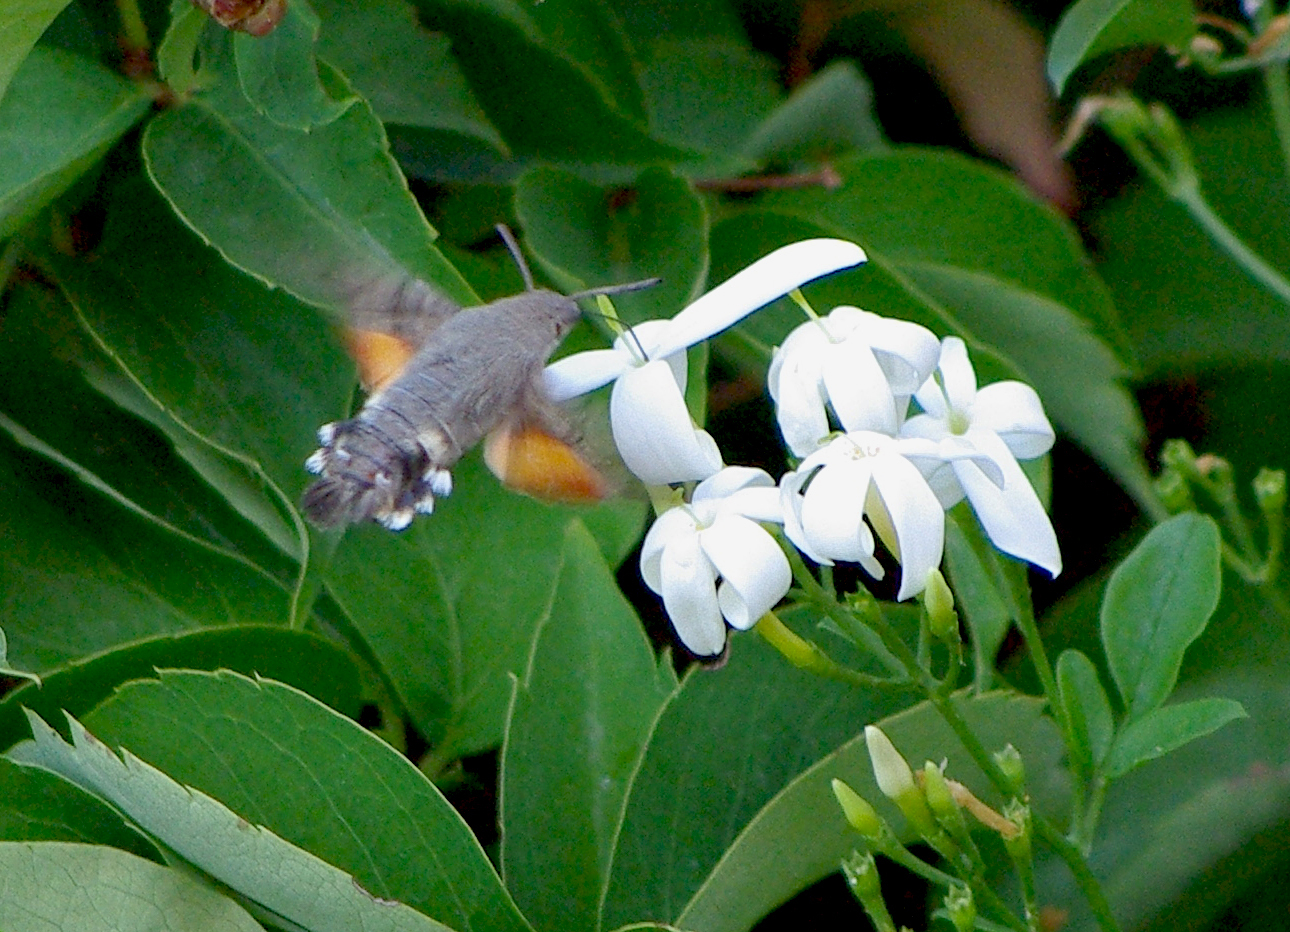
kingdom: Animalia
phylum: Arthropoda
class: Insecta
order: Lepidoptera
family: Sphingidae
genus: Macroglossum
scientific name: Macroglossum stellatarum
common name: Humming-bird hawk-moth
